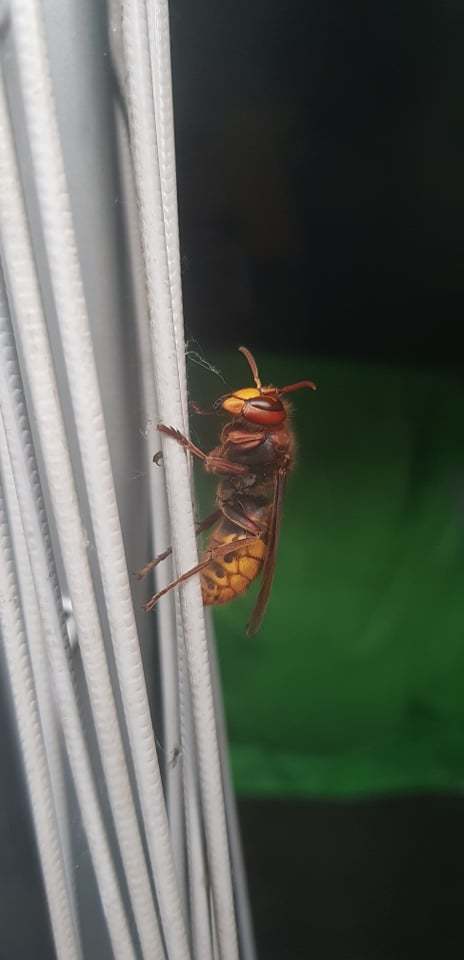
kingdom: Animalia
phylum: Arthropoda
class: Insecta
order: Hymenoptera
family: Vespidae
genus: Vespa
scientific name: Vespa crabro
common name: Hornet
